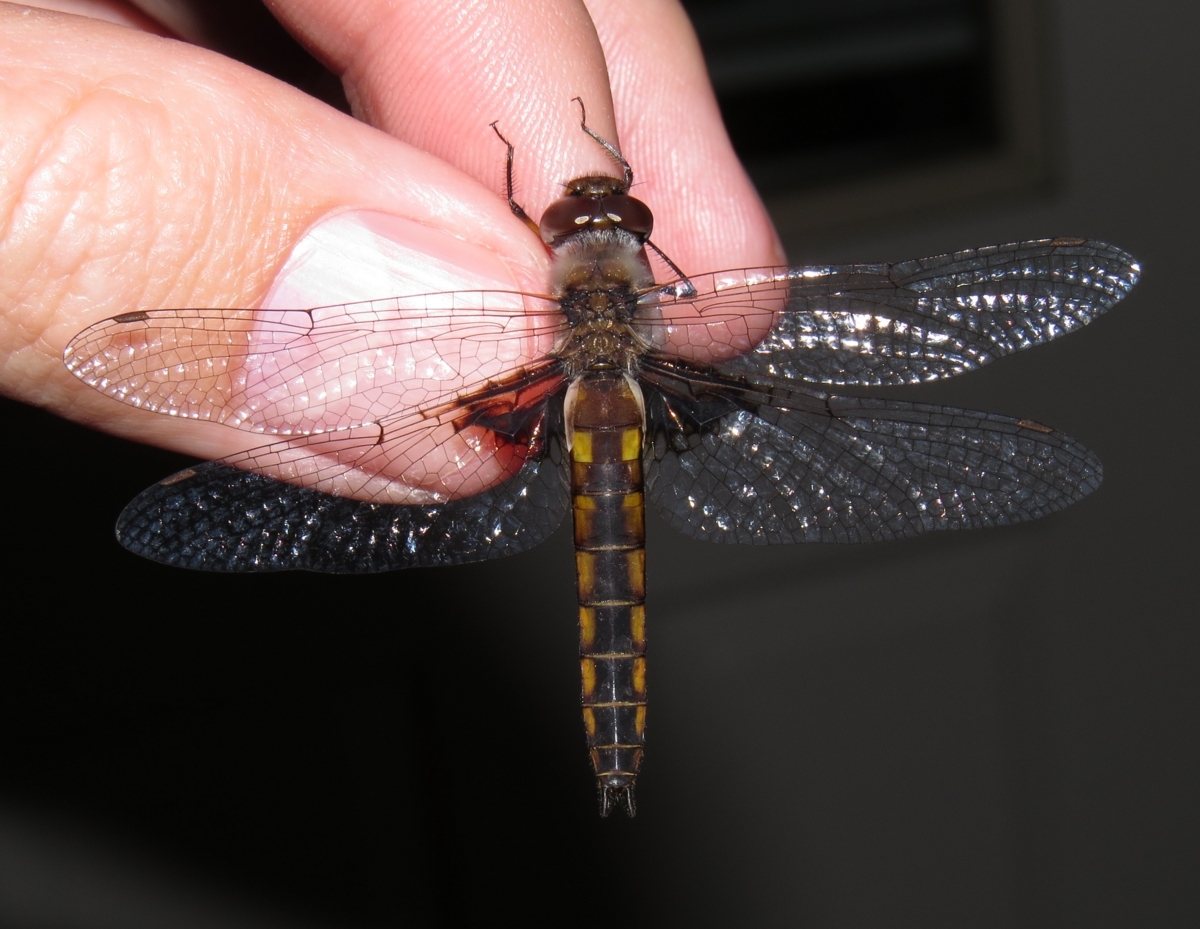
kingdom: Animalia
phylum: Arthropoda
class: Insecta
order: Odonata
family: Corduliidae
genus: Epitheca
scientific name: Epitheca semiaquea
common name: Mantled baskettail
